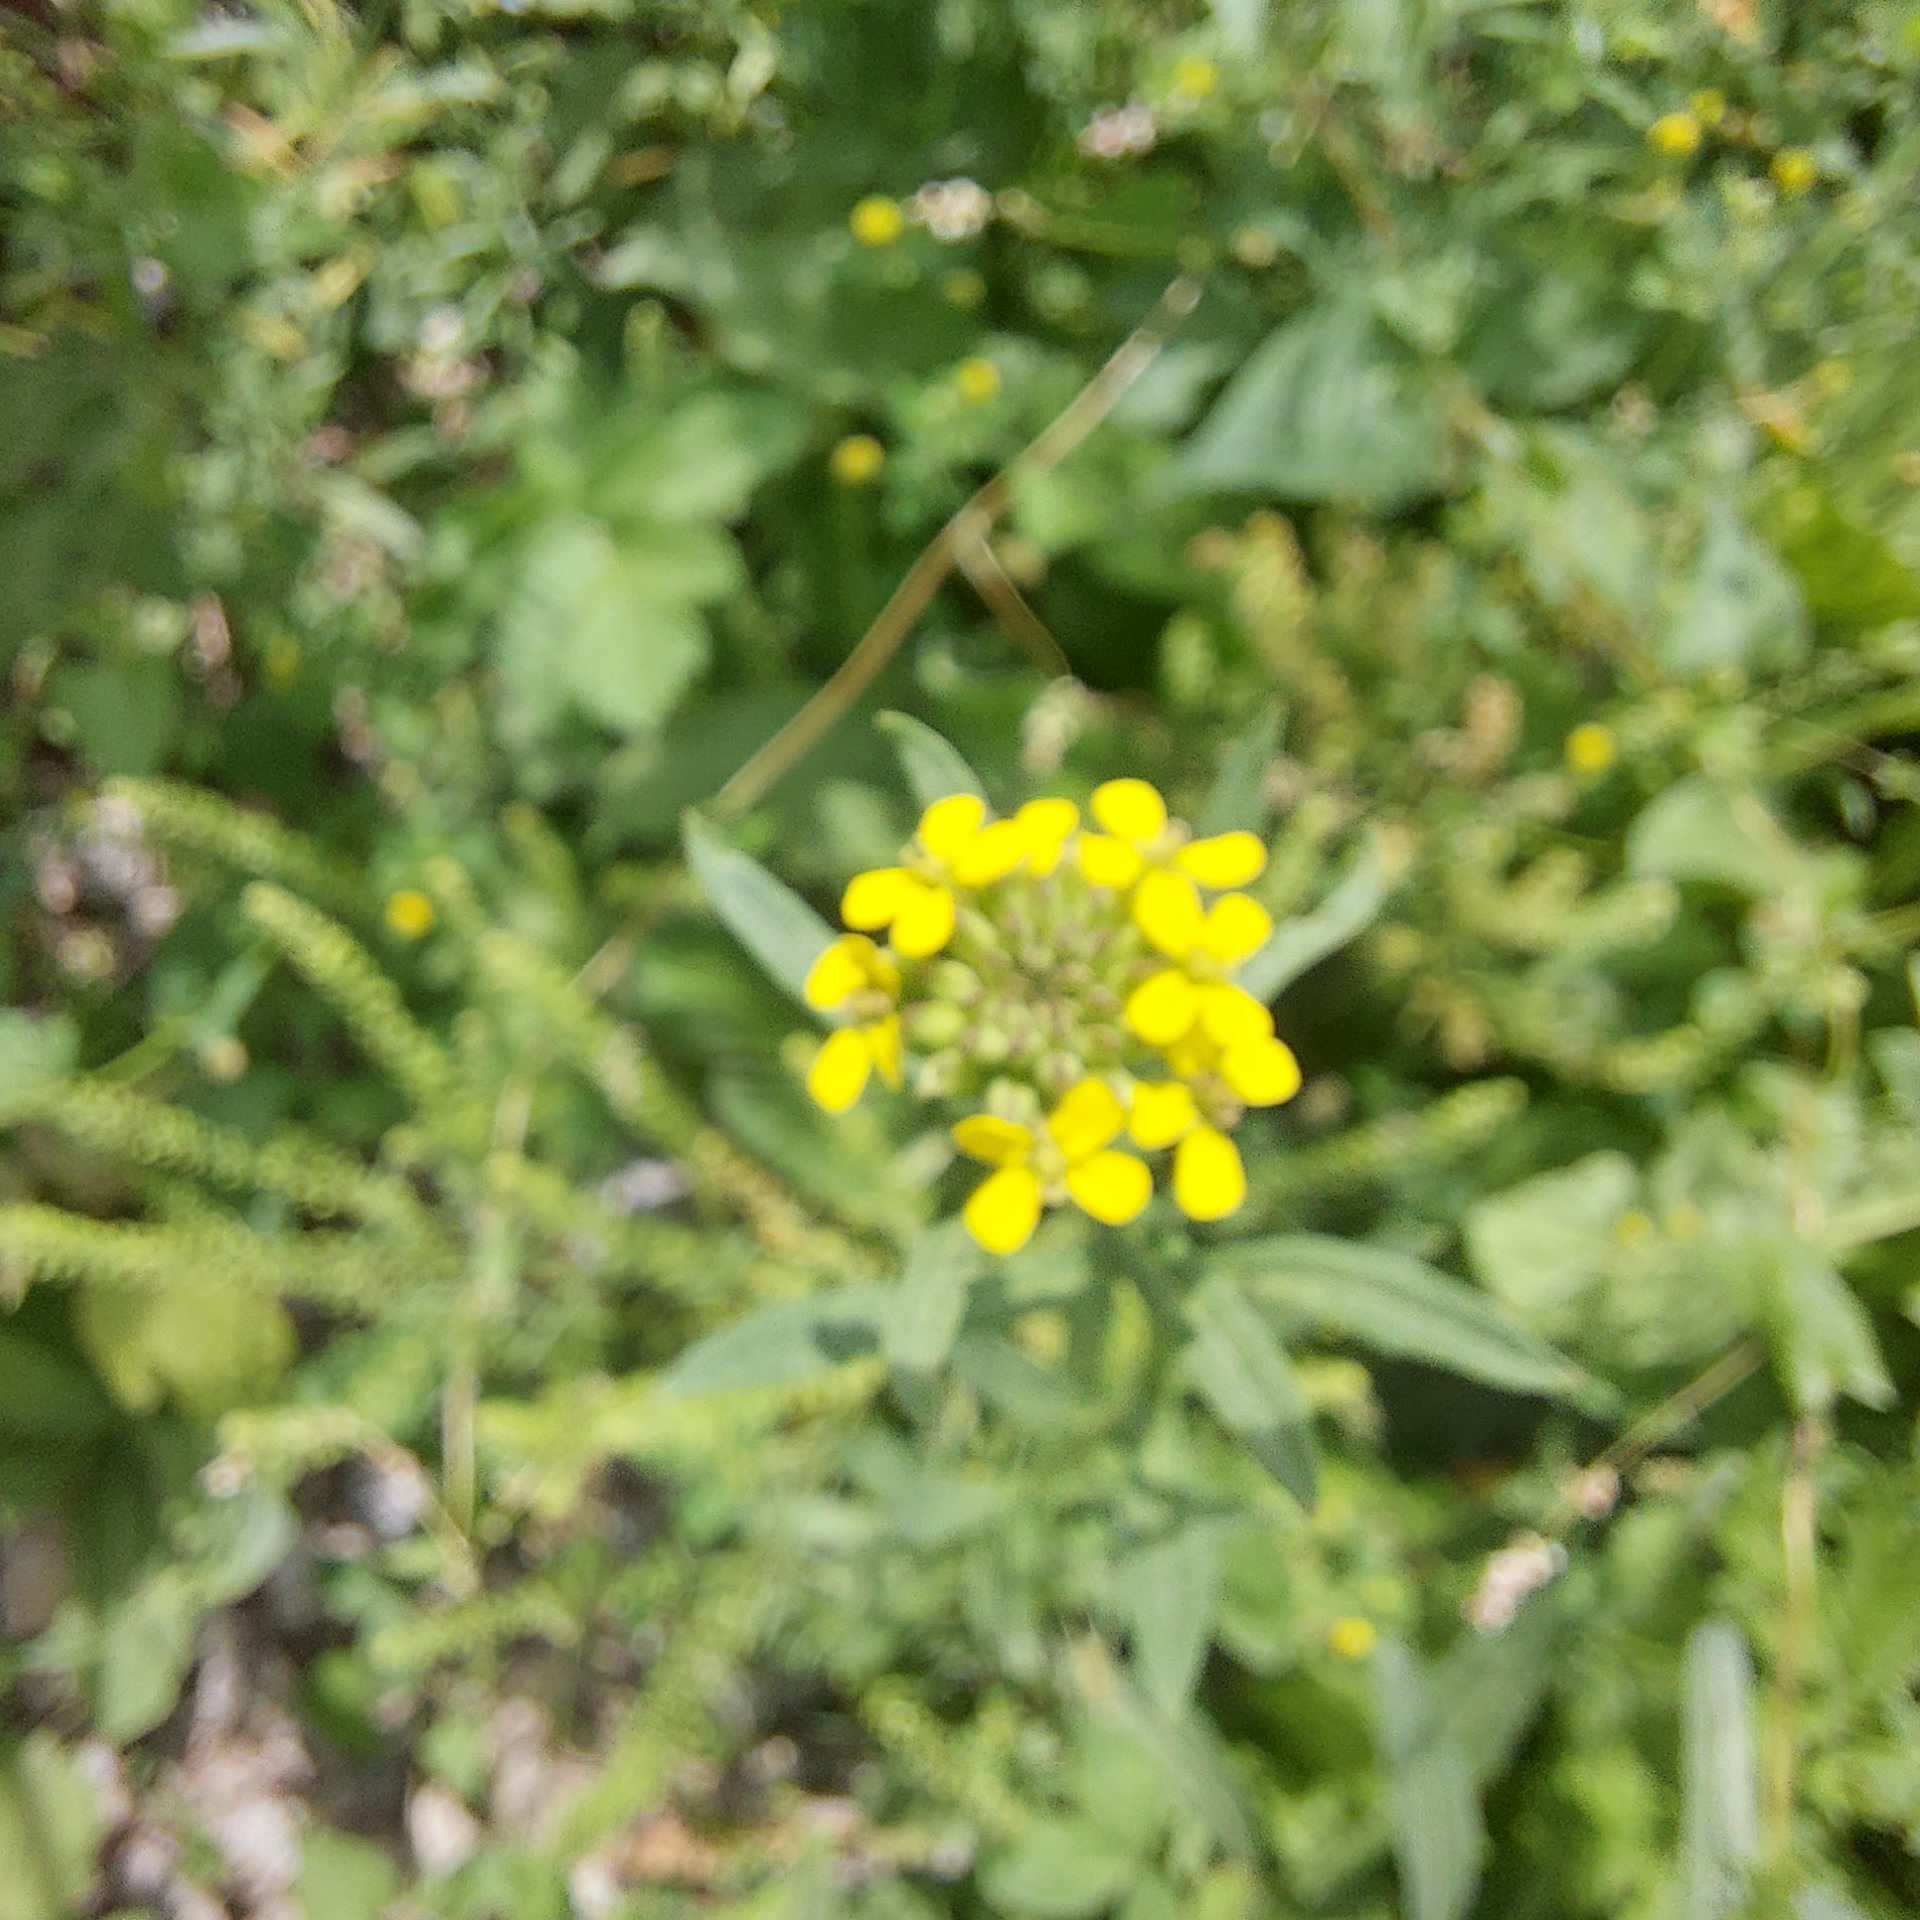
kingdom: Plantae
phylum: Tracheophyta
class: Magnoliopsida
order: Brassicales
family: Brassicaceae
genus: Erysimum
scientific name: Erysimum hieraciifolium
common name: European wallflower
